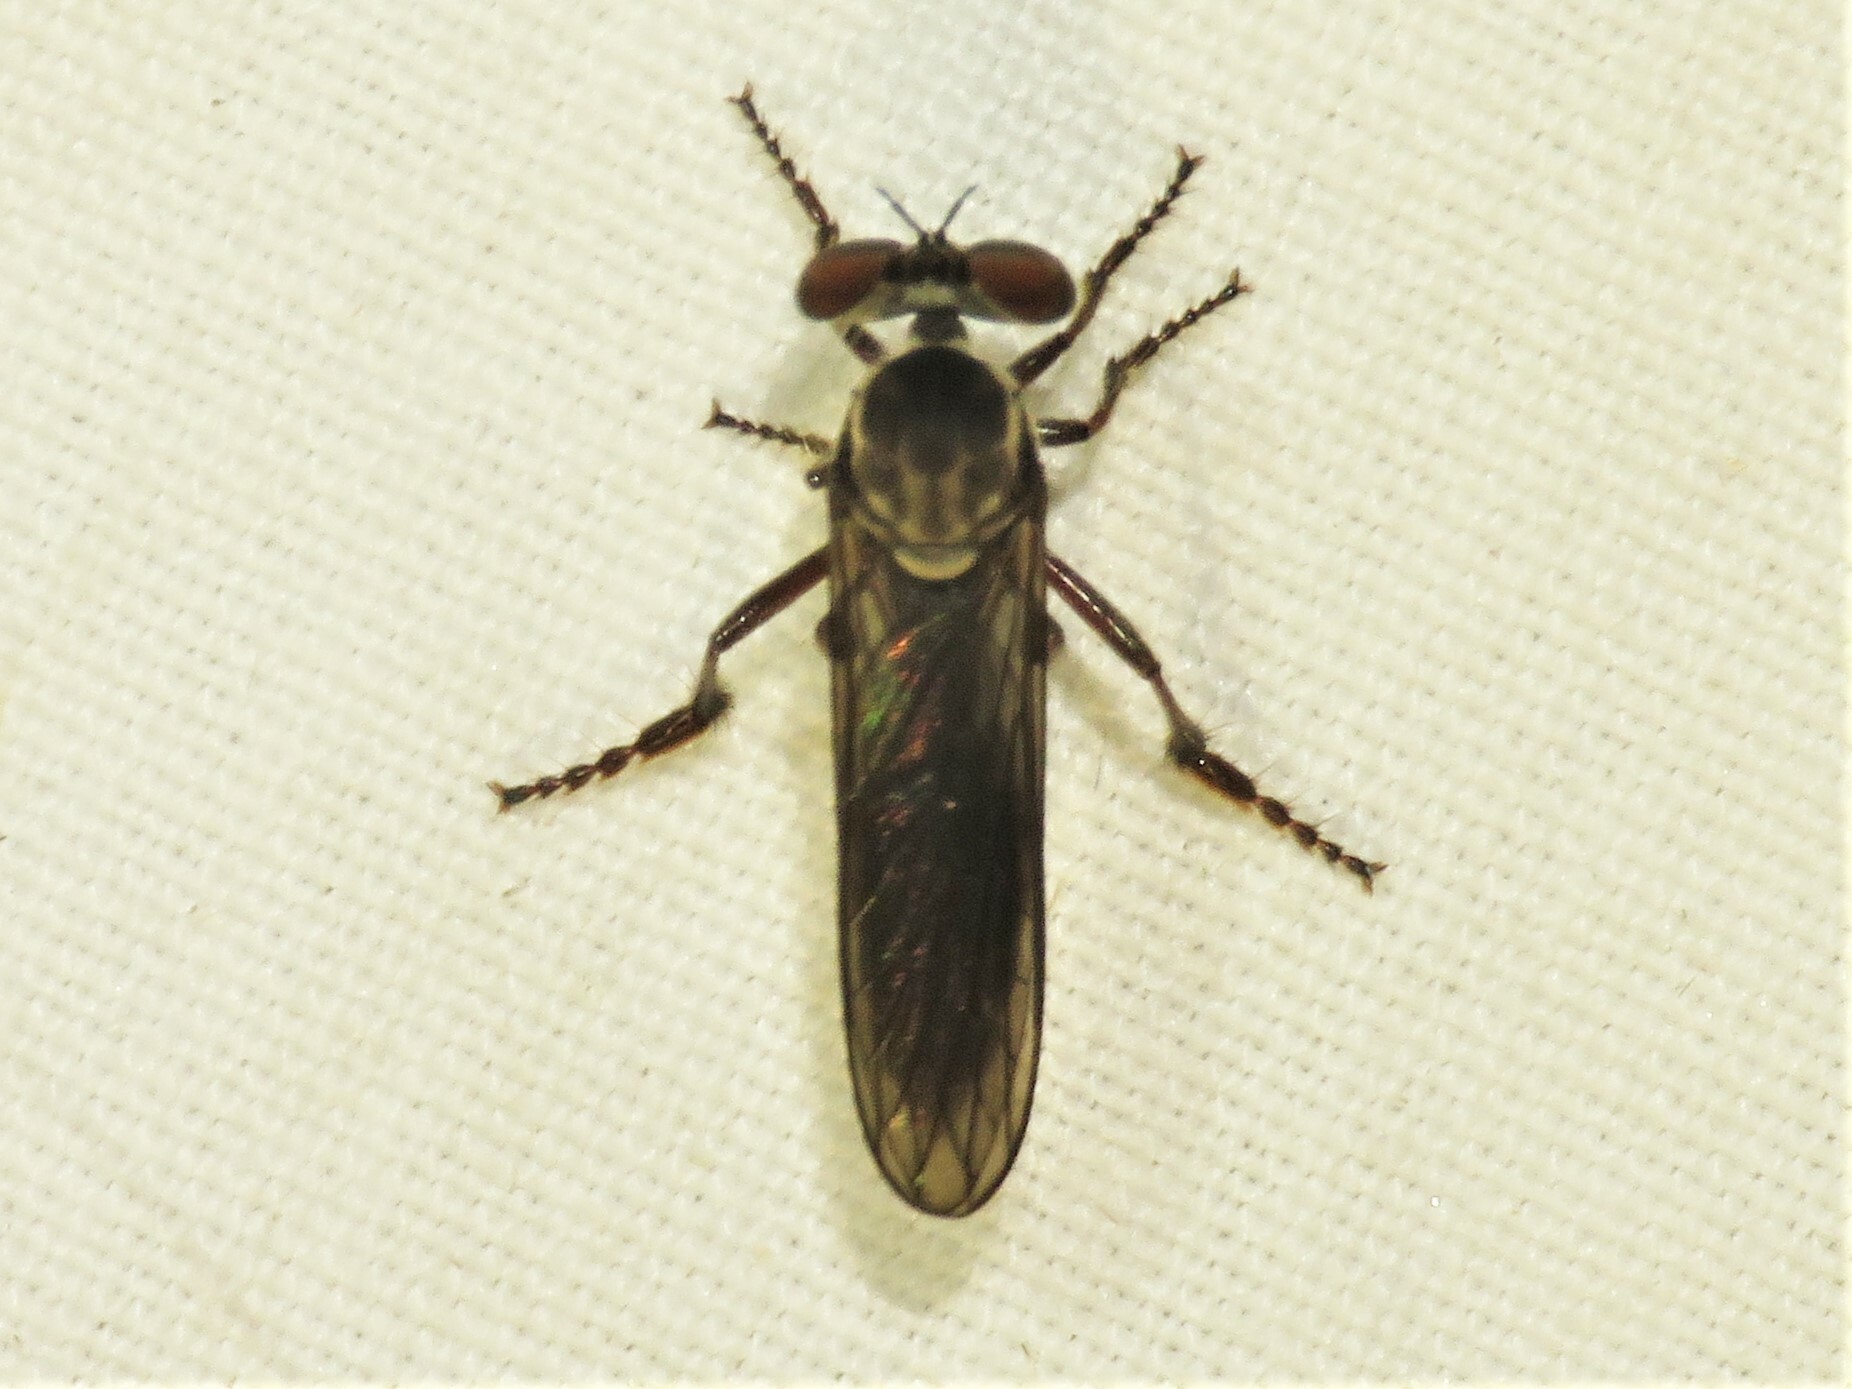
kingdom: Animalia
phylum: Arthropoda
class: Insecta
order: Diptera
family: Asilidae
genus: Holcocephala
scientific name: Holcocephala calva
